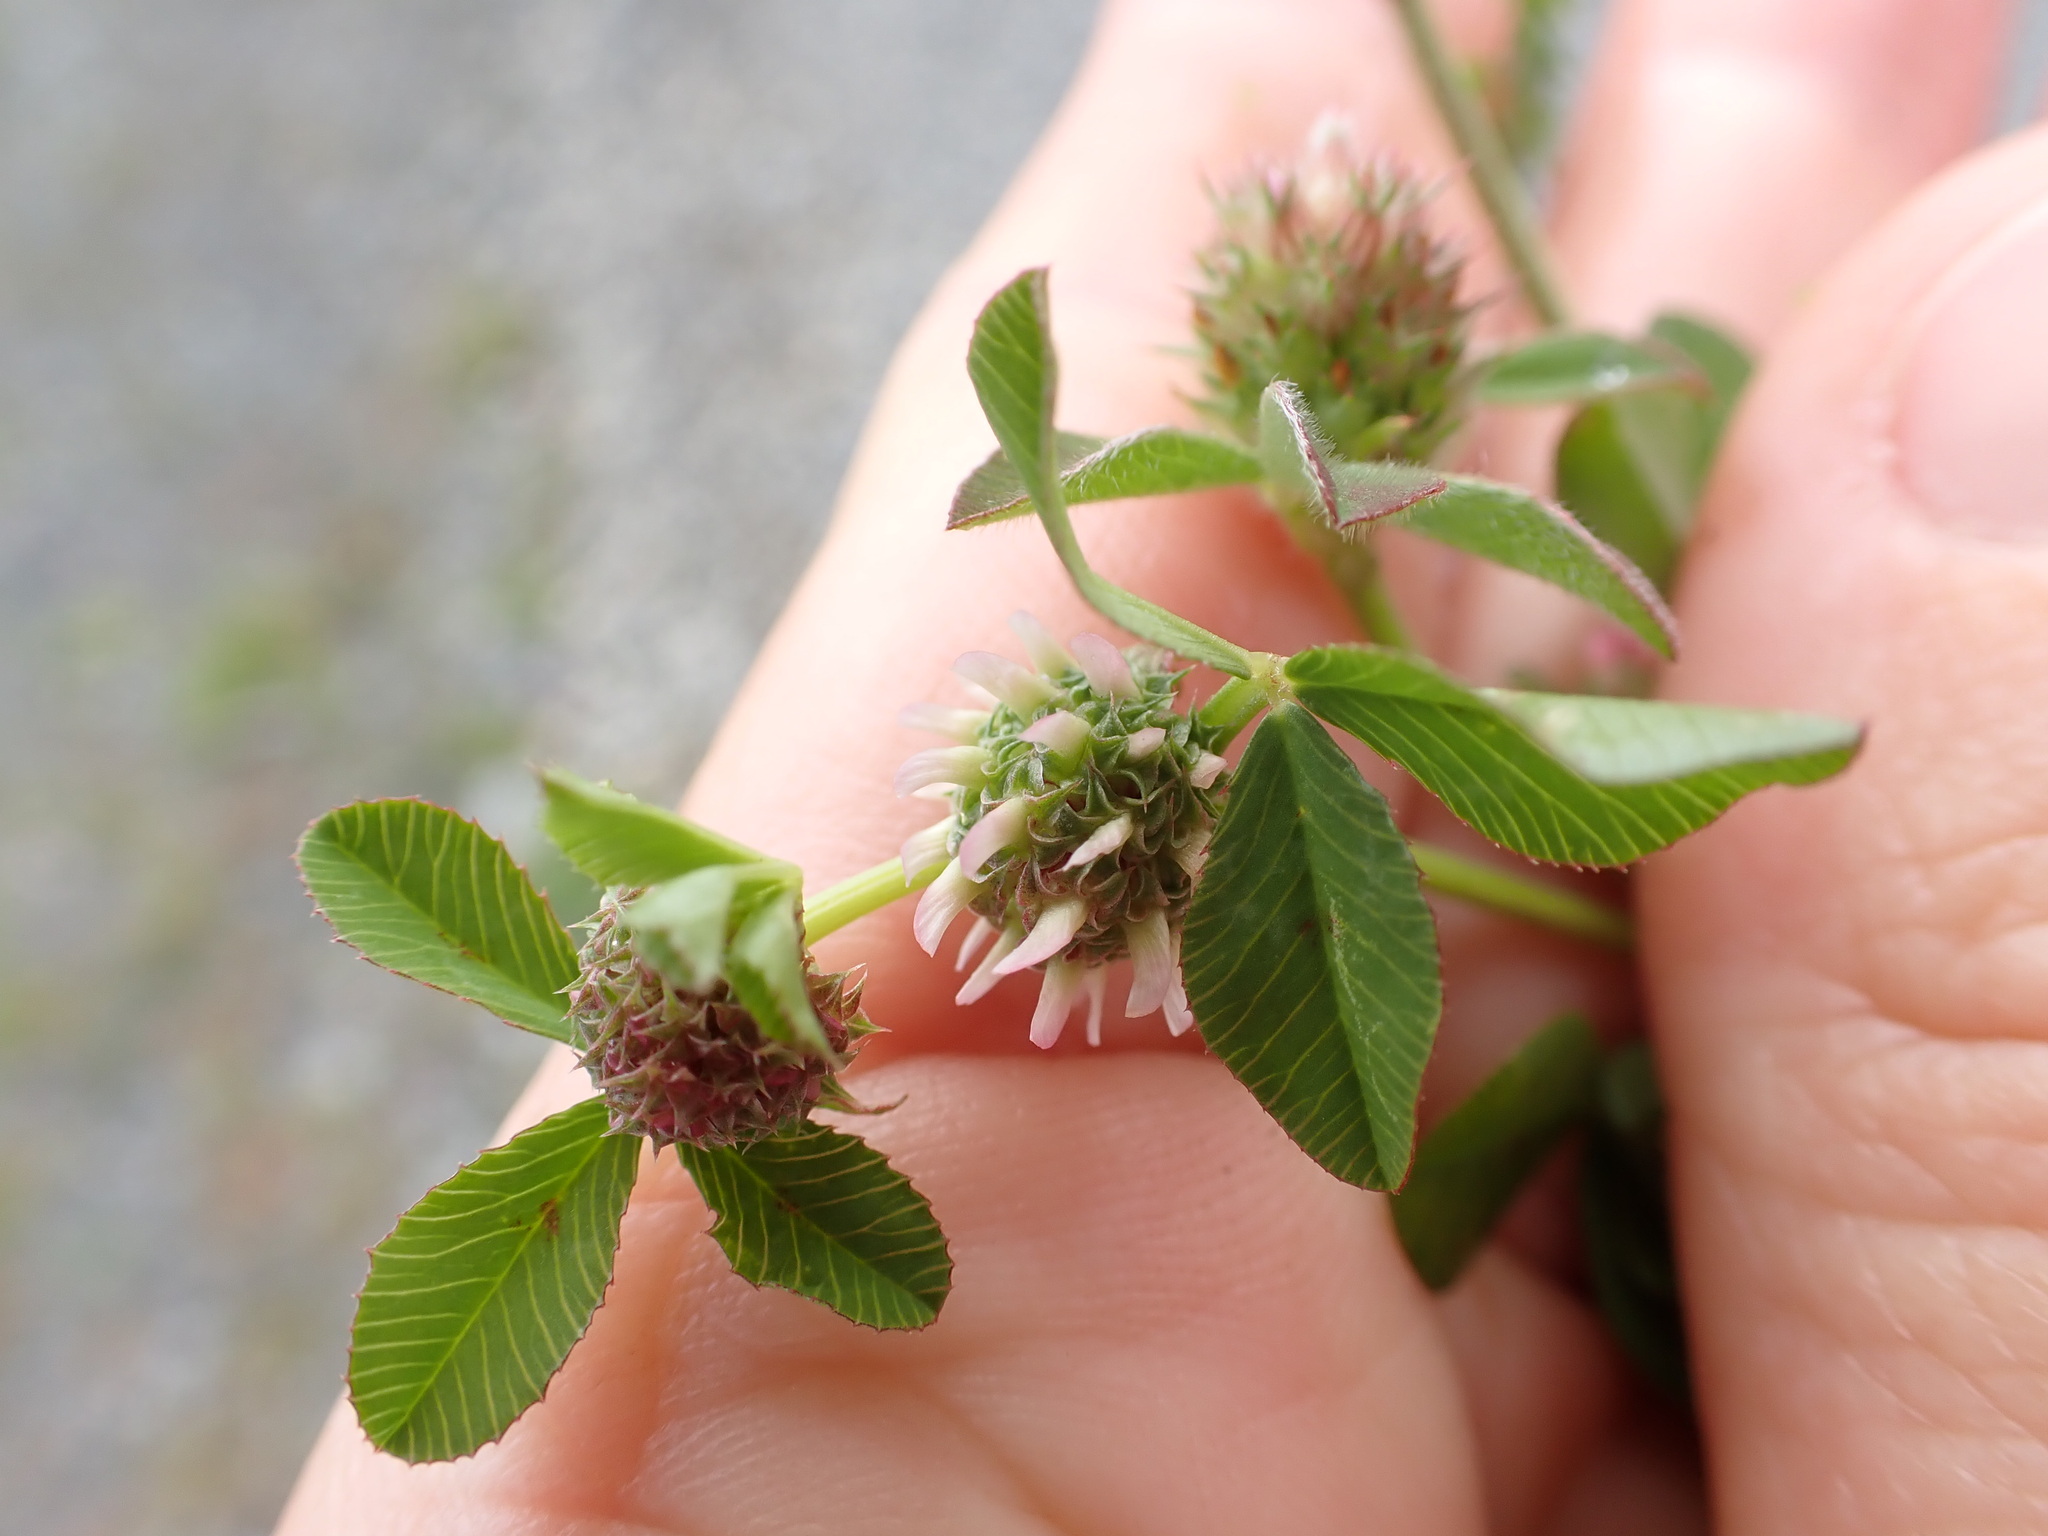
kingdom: Plantae
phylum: Tracheophyta
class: Magnoliopsida
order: Fabales
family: Fabaceae
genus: Trifolium
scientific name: Trifolium glomeratum
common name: Clustered clover
